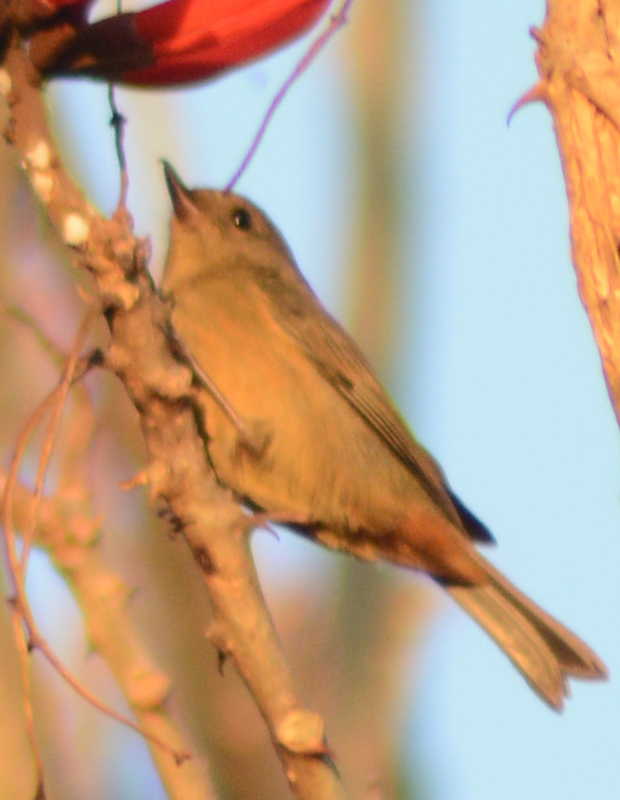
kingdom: Animalia
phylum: Chordata
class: Aves
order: Passeriformes
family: Thraupidae
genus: Diglossa
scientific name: Diglossa baritula
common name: Cinnamon-bellied flowerpiercer
